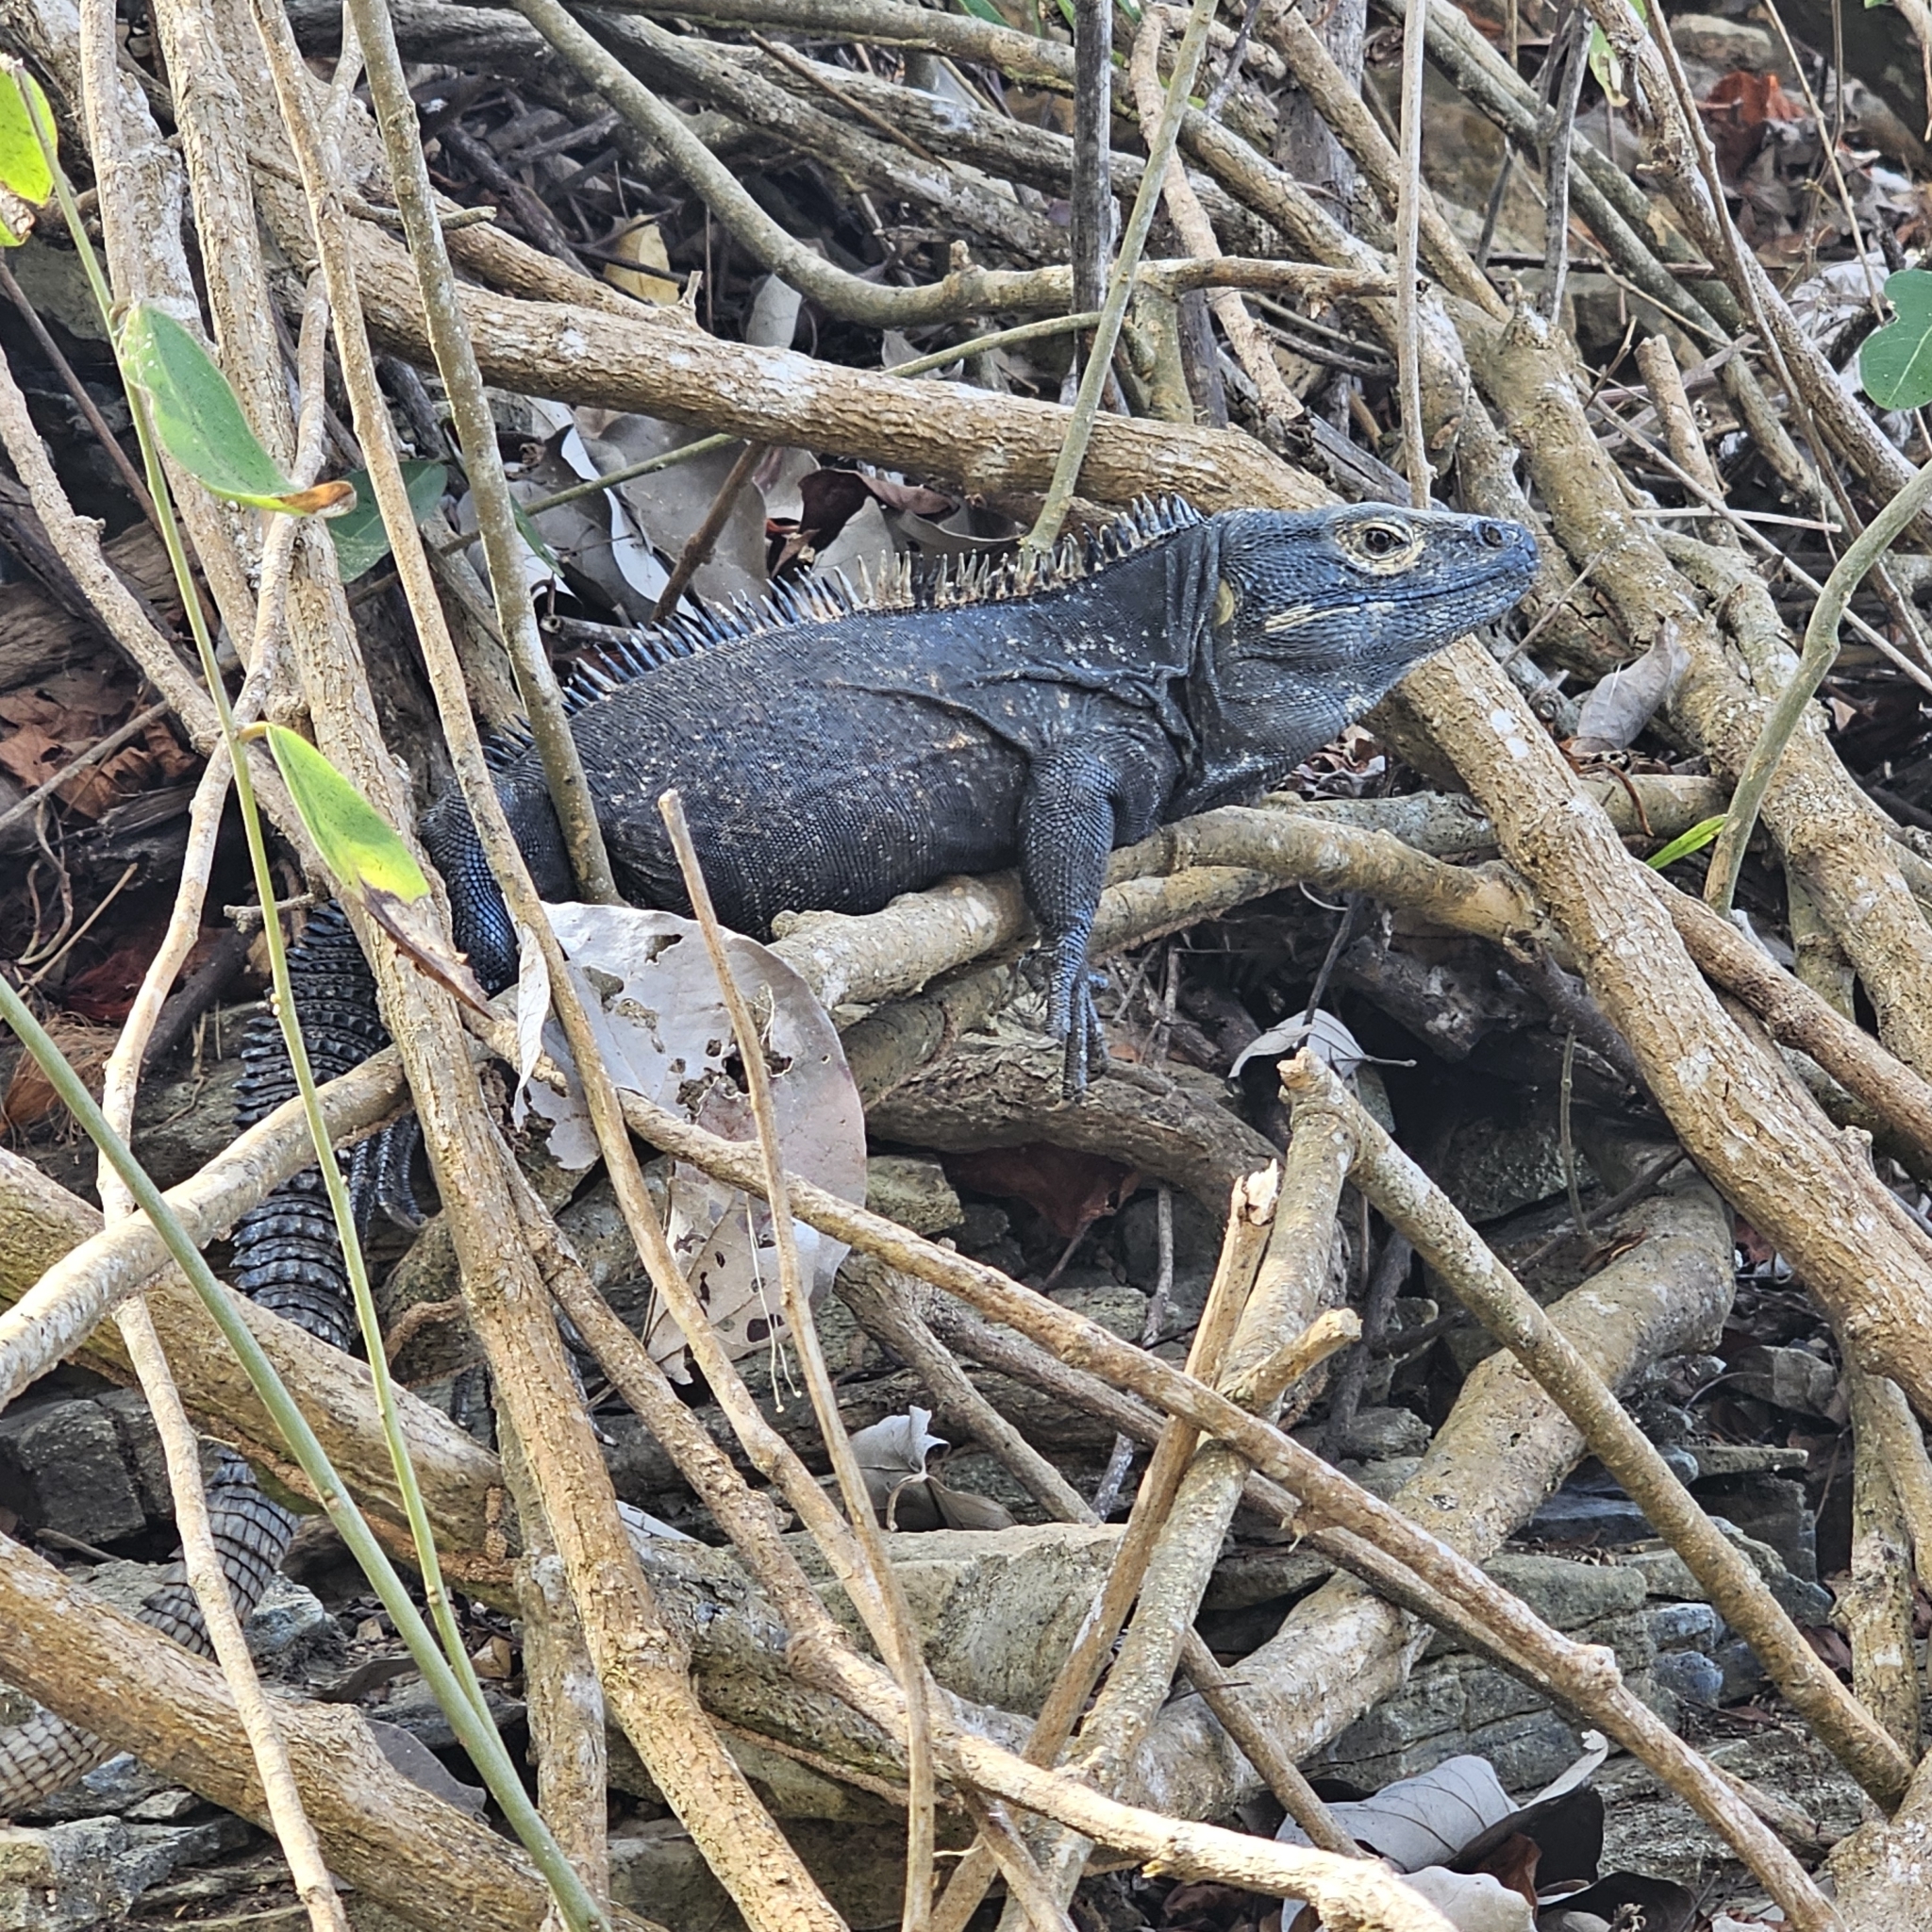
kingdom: Animalia
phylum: Chordata
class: Squamata
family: Iguanidae
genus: Ctenosaura
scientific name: Ctenosaura similis
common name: Black spiny-tailed iguana
